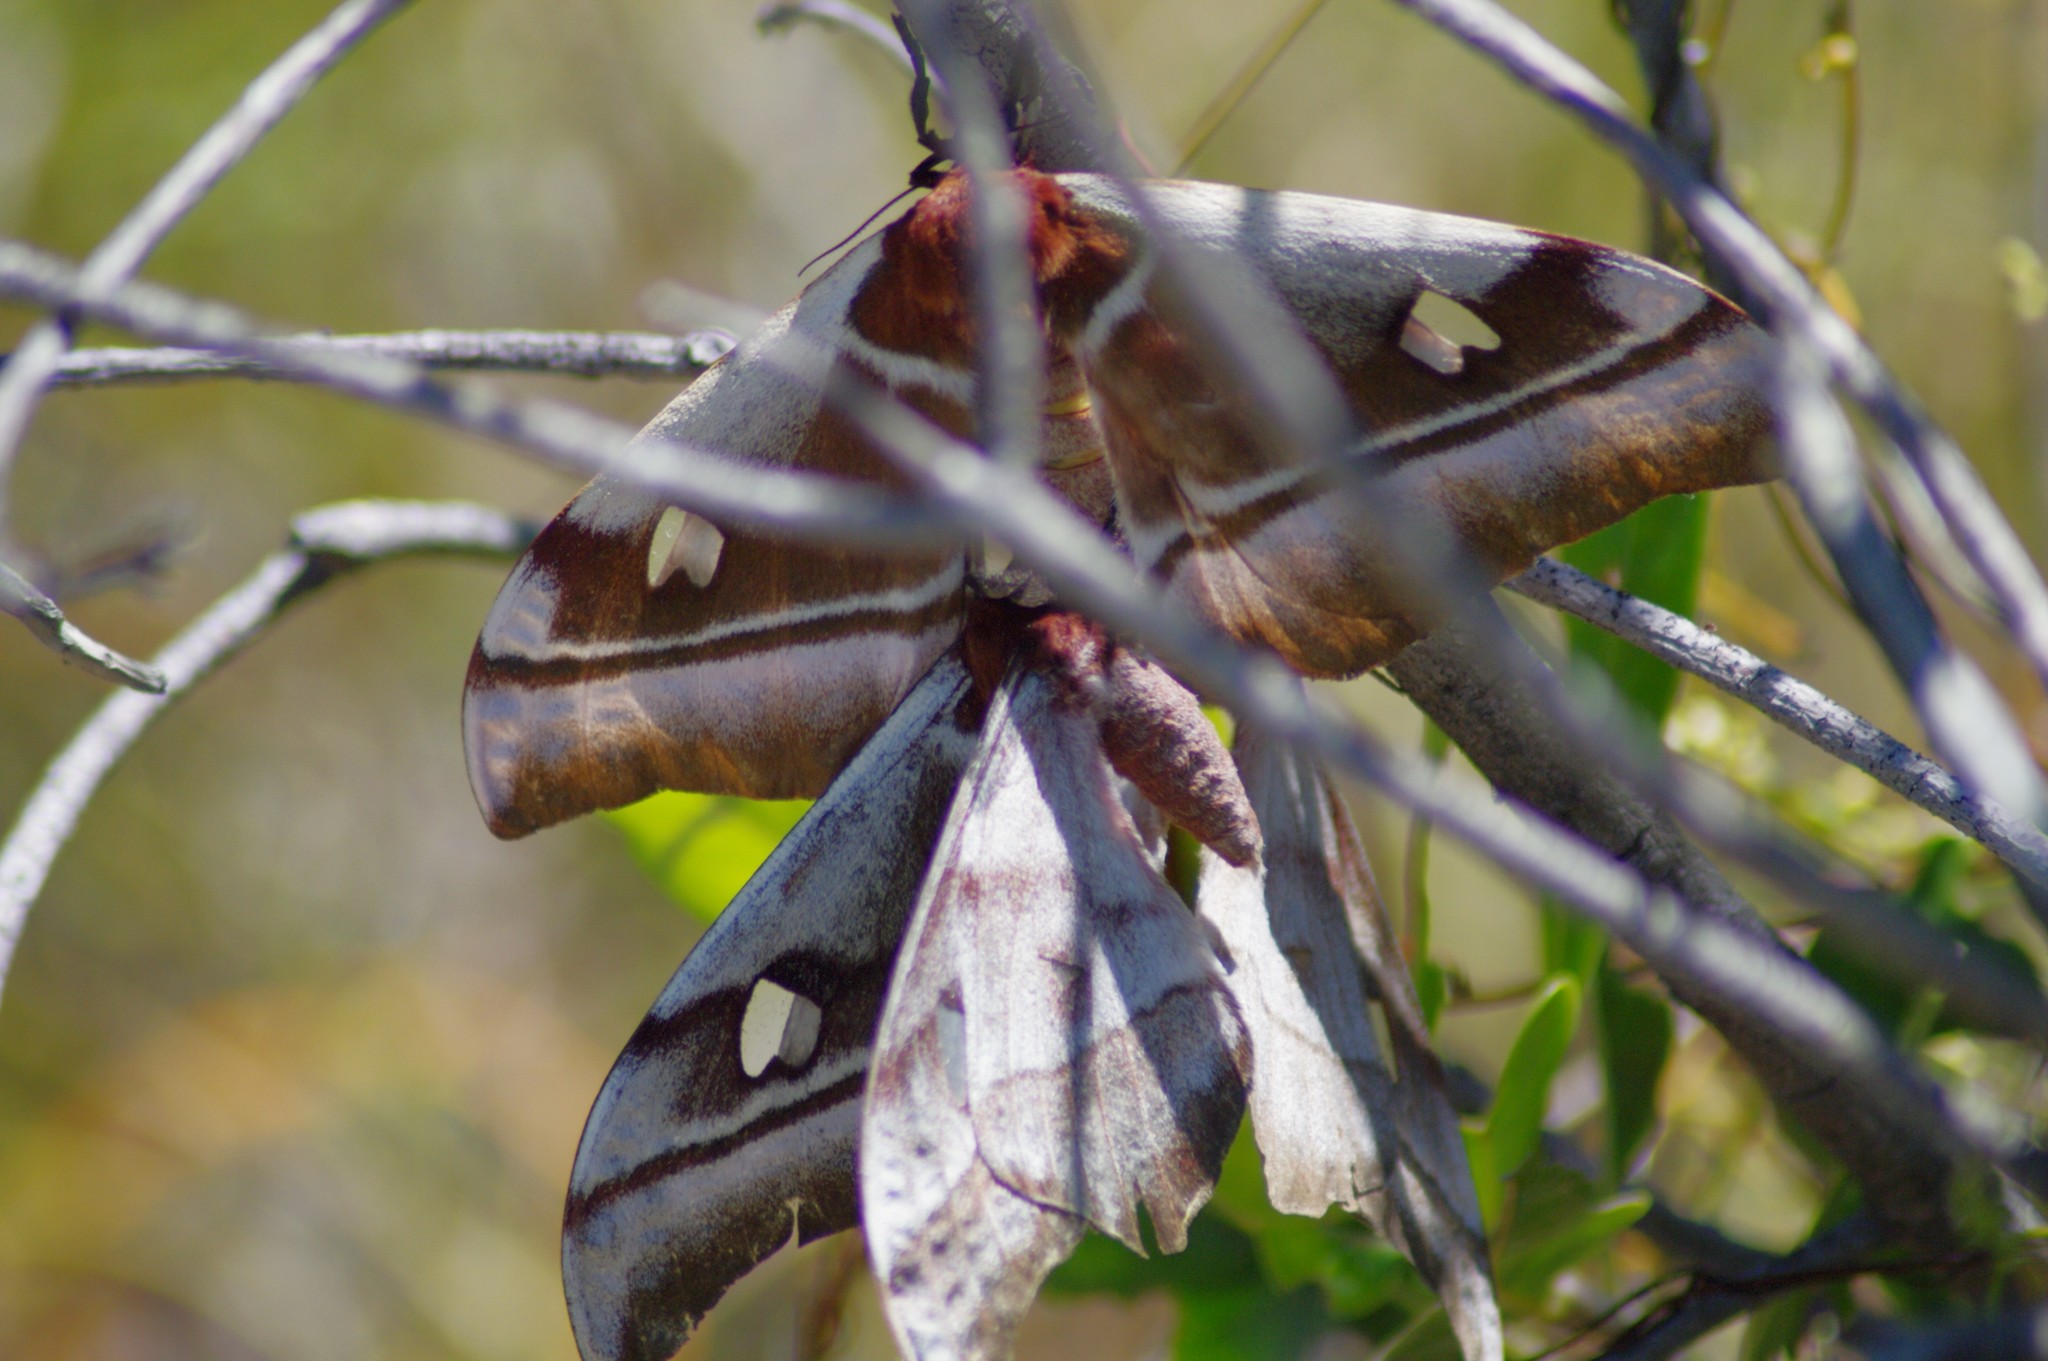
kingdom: Animalia
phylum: Arthropoda
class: Insecta
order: Lepidoptera
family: Saturniidae
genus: Bunaea
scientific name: Bunaea aslauga
